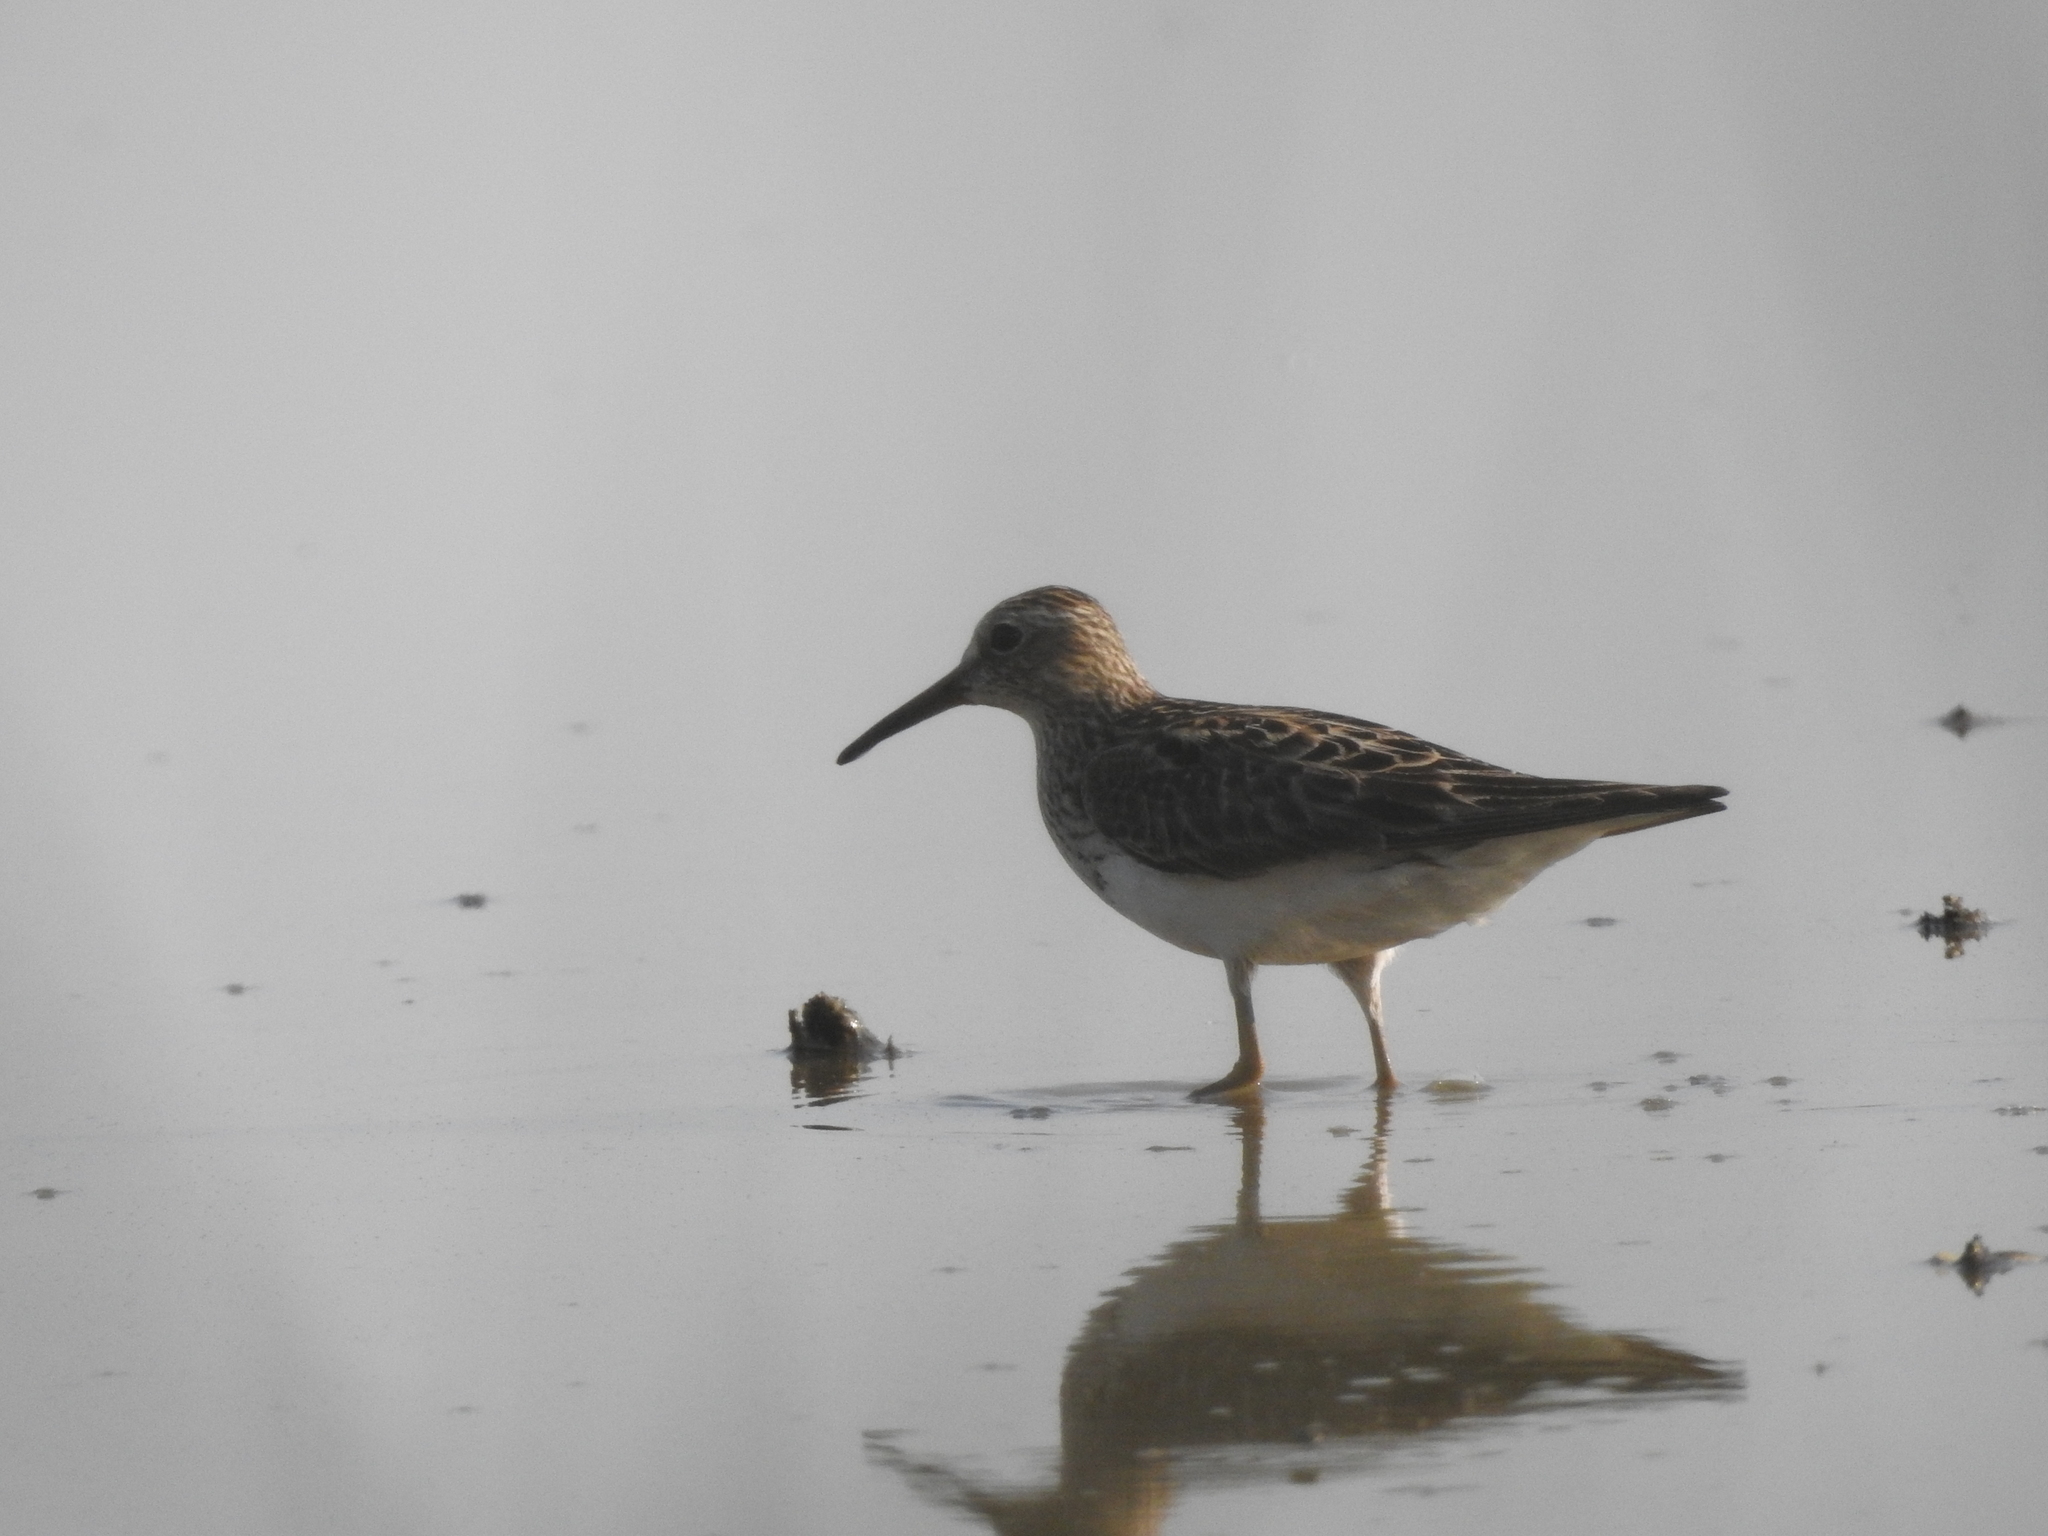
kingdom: Animalia
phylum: Chordata
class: Aves
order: Charadriiformes
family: Scolopacidae
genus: Calidris
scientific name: Calidris melanotos
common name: Pectoral sandpiper
